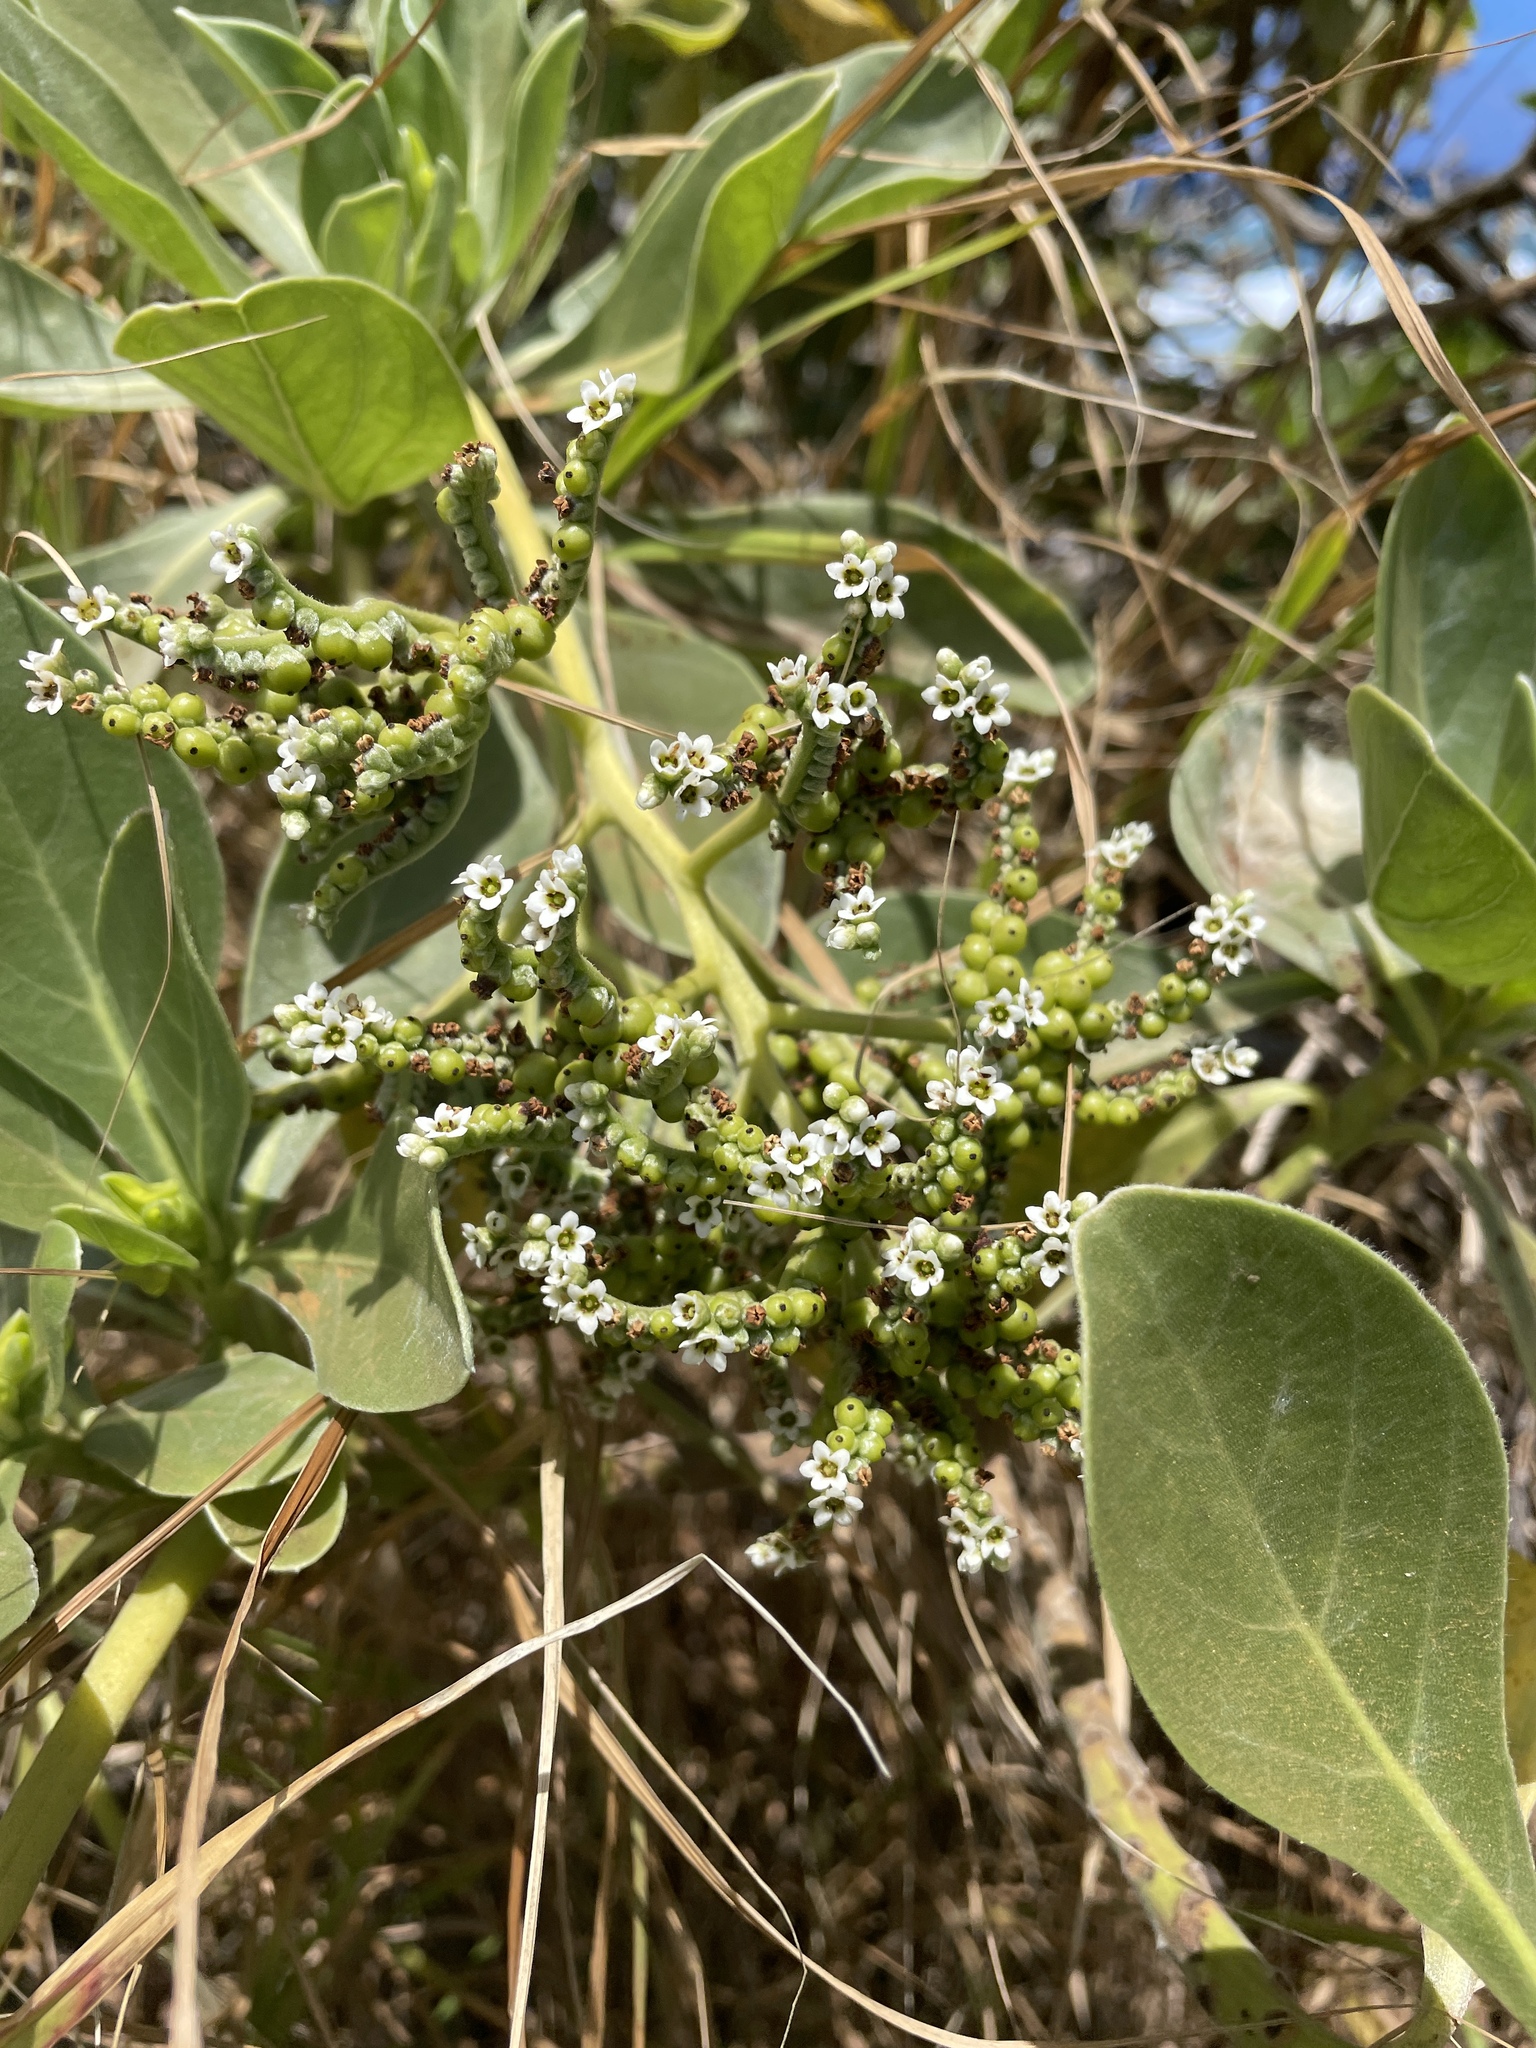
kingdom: Plantae
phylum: Tracheophyta
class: Magnoliopsida
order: Boraginales
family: Heliotropiaceae
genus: Heliotropium
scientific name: Heliotropium velutinum
